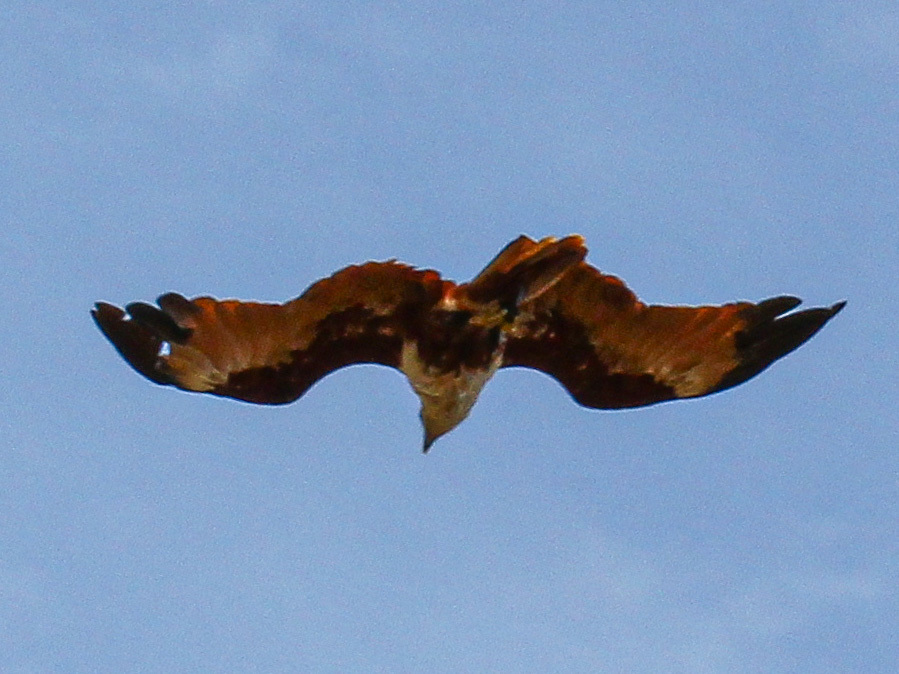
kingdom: Animalia
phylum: Chordata
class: Aves
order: Accipitriformes
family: Accipitridae
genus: Haliastur
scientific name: Haliastur indus
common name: Brahminy kite
